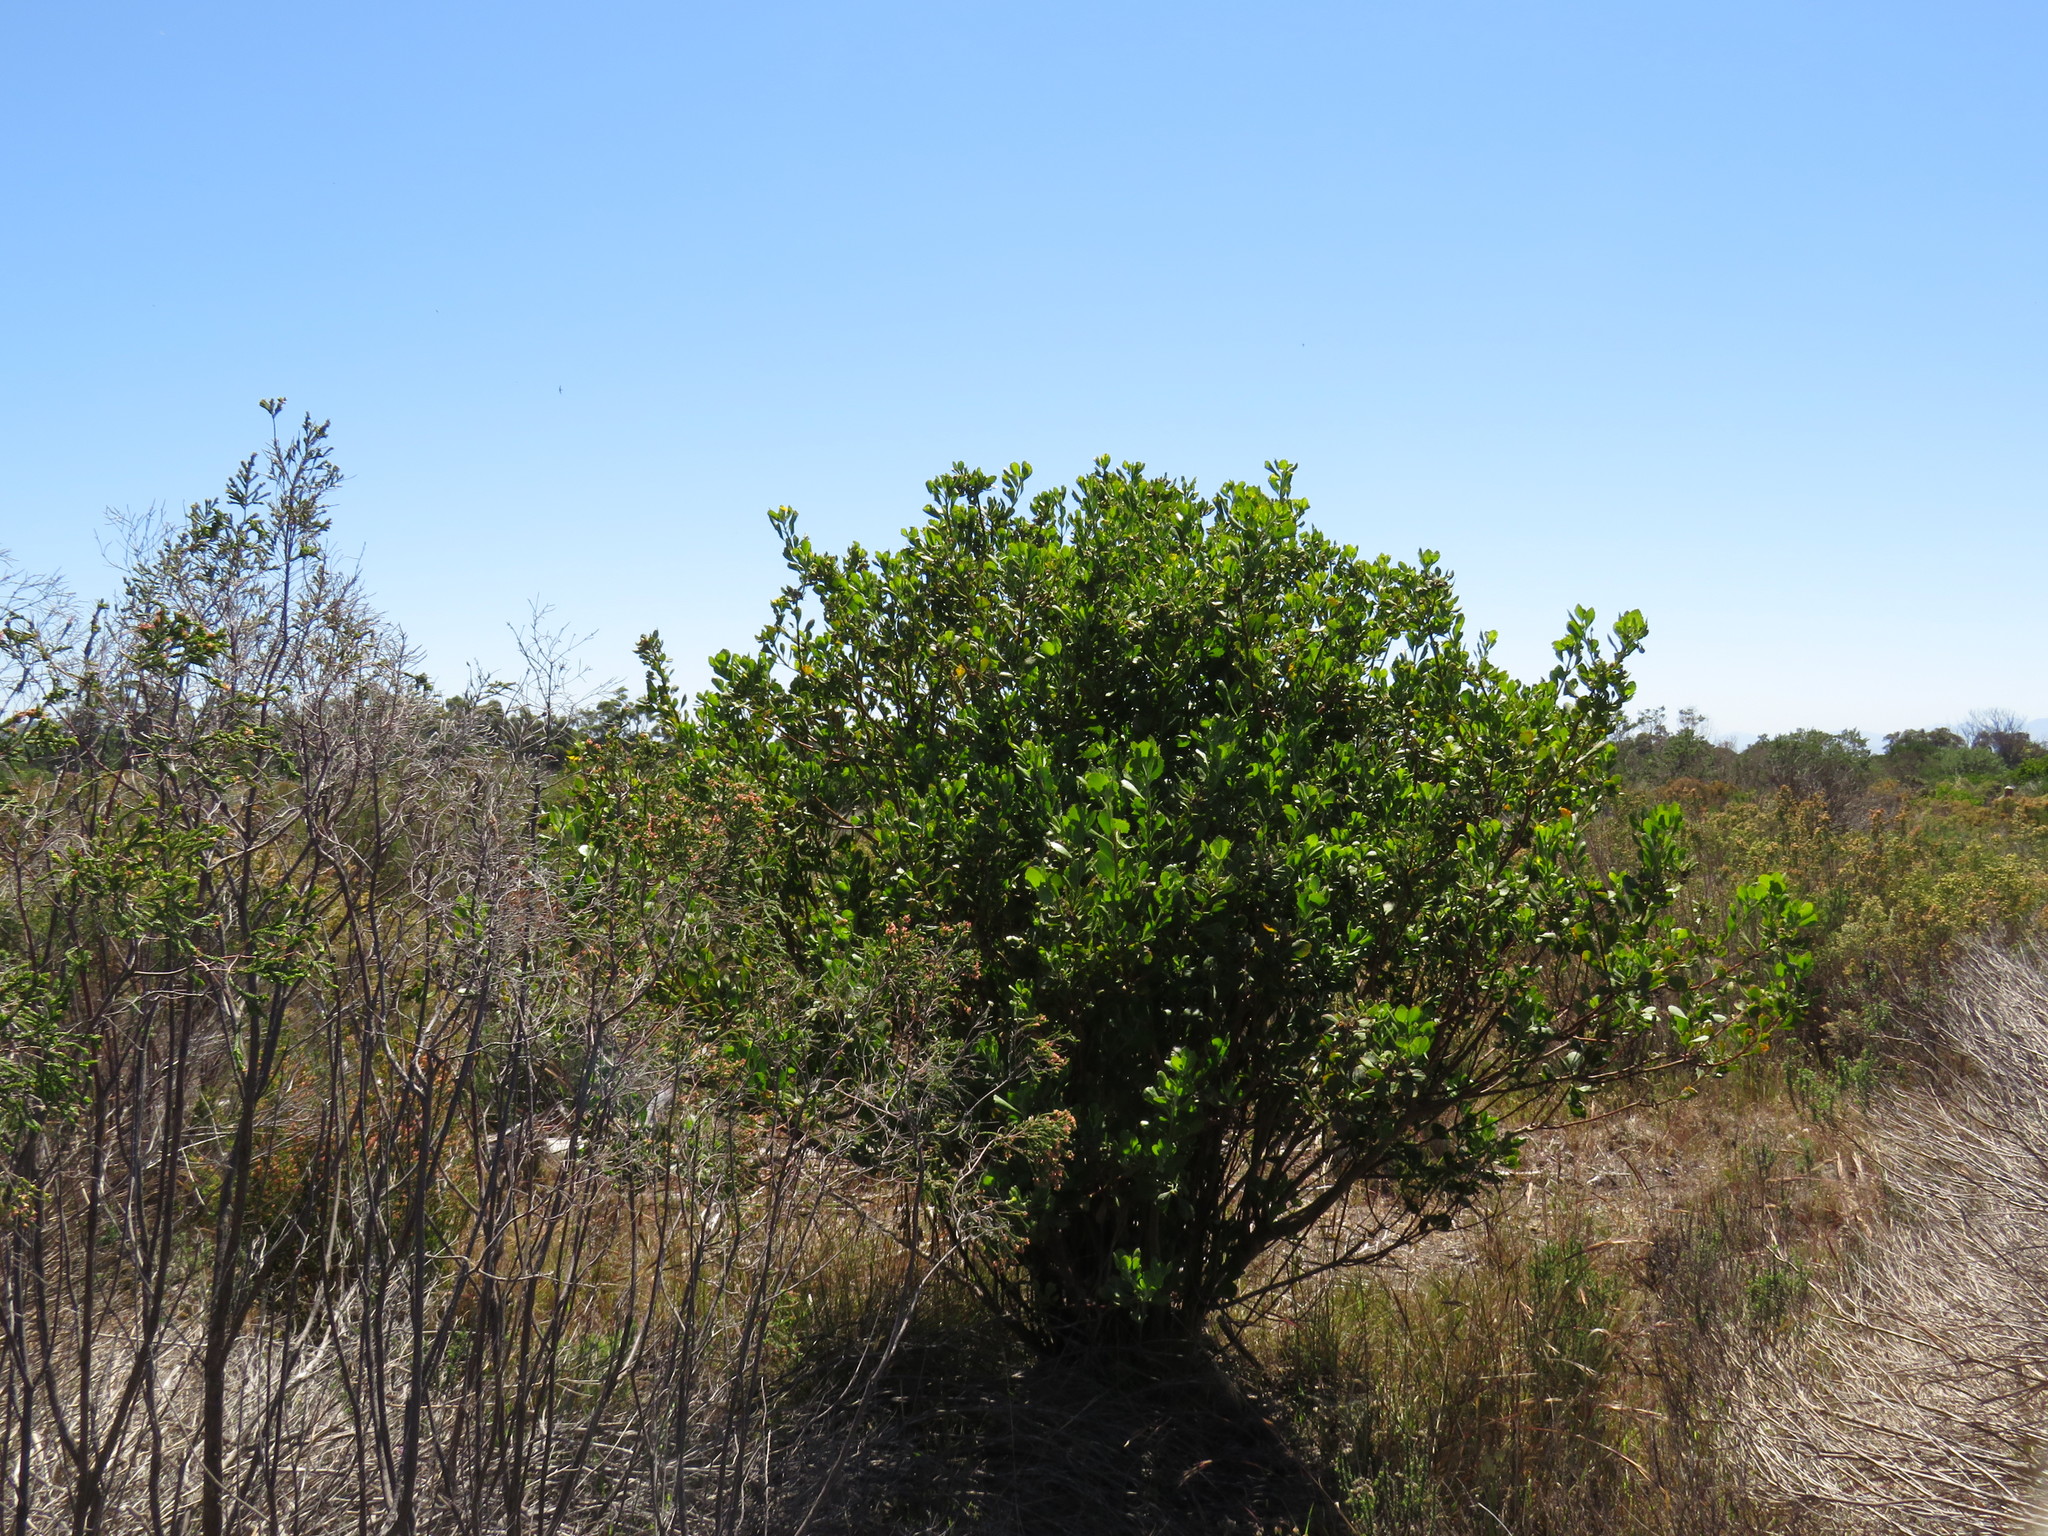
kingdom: Plantae
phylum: Tracheophyta
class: Magnoliopsida
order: Asterales
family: Asteraceae
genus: Osteospermum
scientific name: Osteospermum moniliferum
